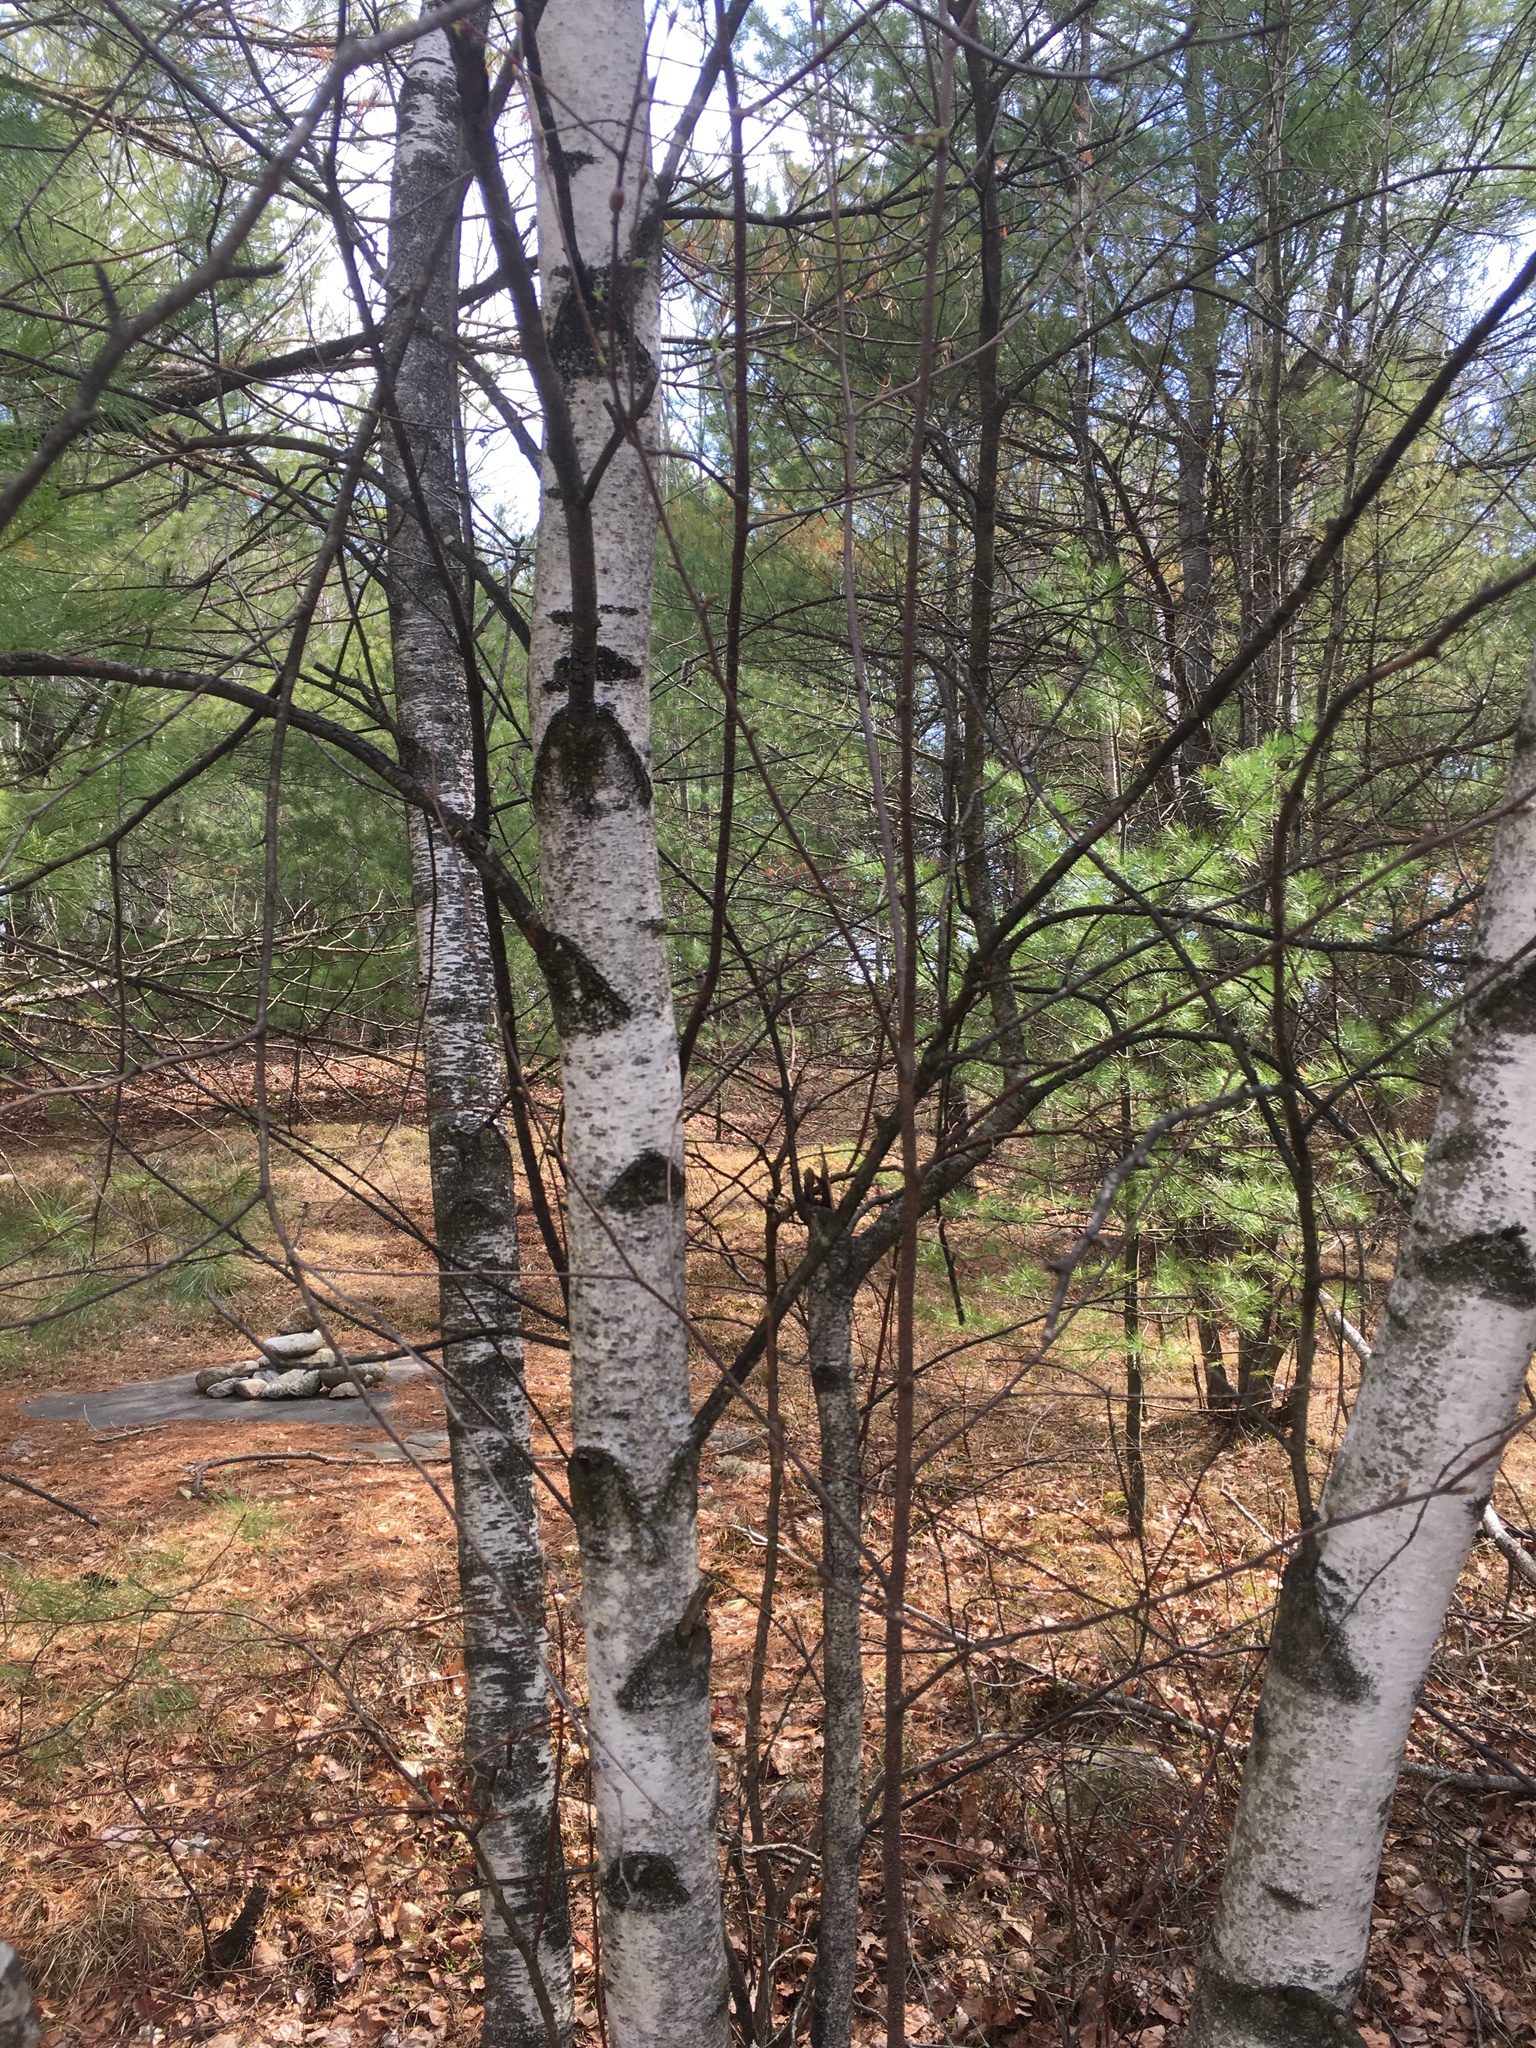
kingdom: Plantae
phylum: Tracheophyta
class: Magnoliopsida
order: Fagales
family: Betulaceae
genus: Betula
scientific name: Betula populifolia
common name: Fire birch
